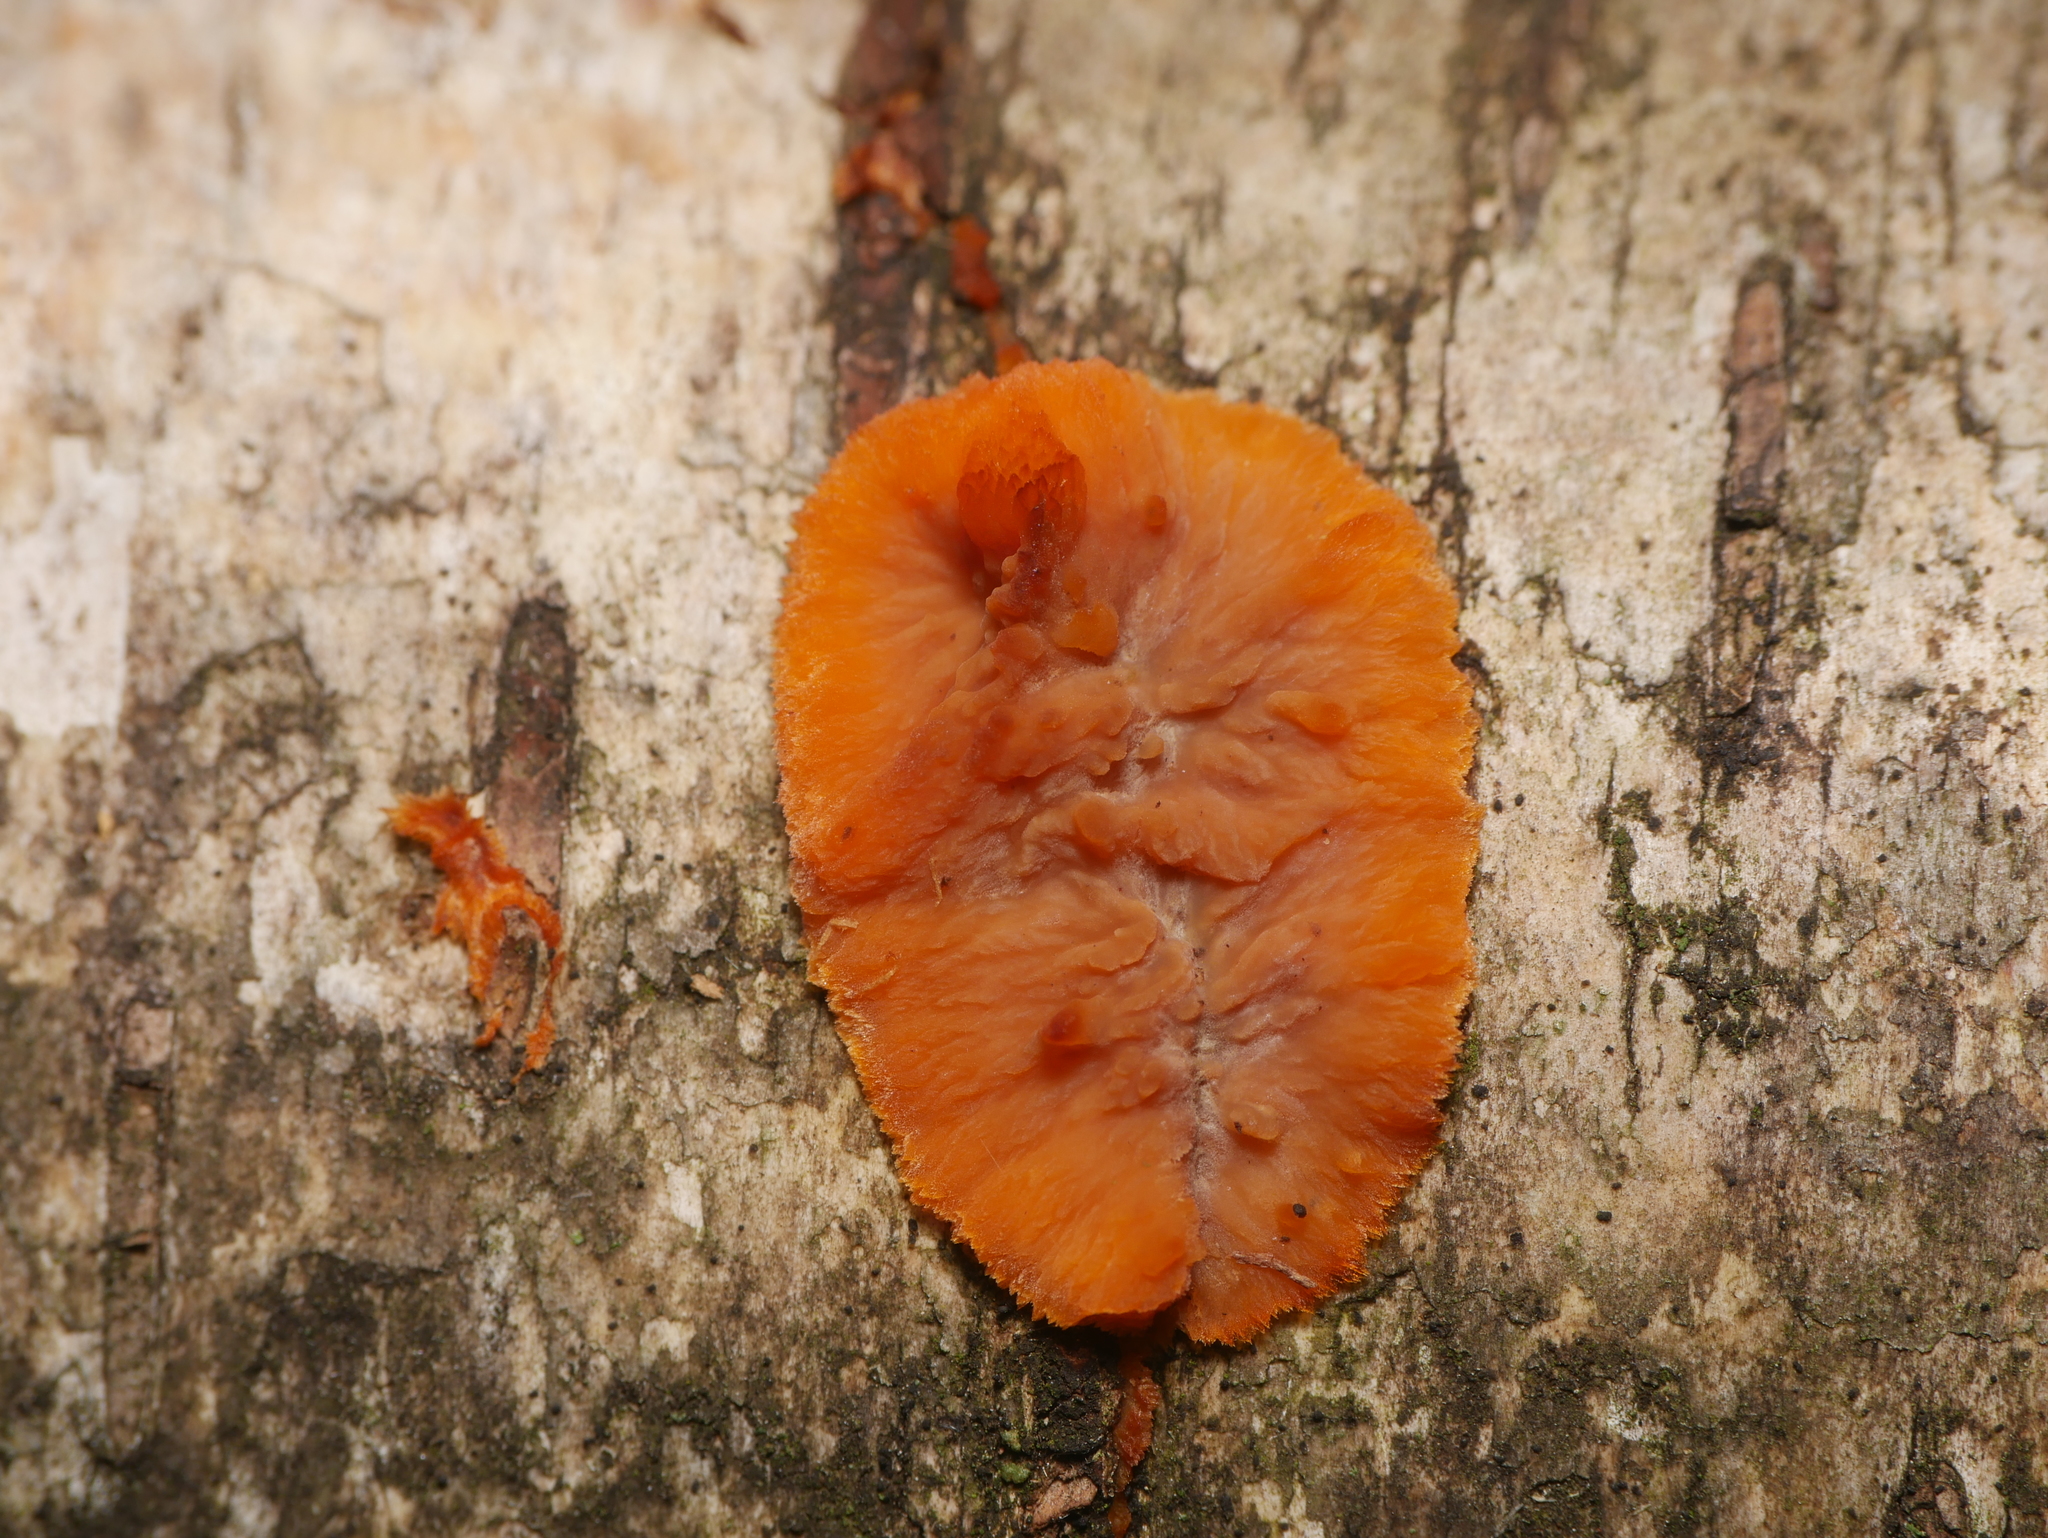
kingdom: Fungi
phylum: Basidiomycota
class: Agaricomycetes
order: Polyporales
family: Meruliaceae
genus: Phlebia
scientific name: Phlebia radiata
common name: Wrinkled crust
